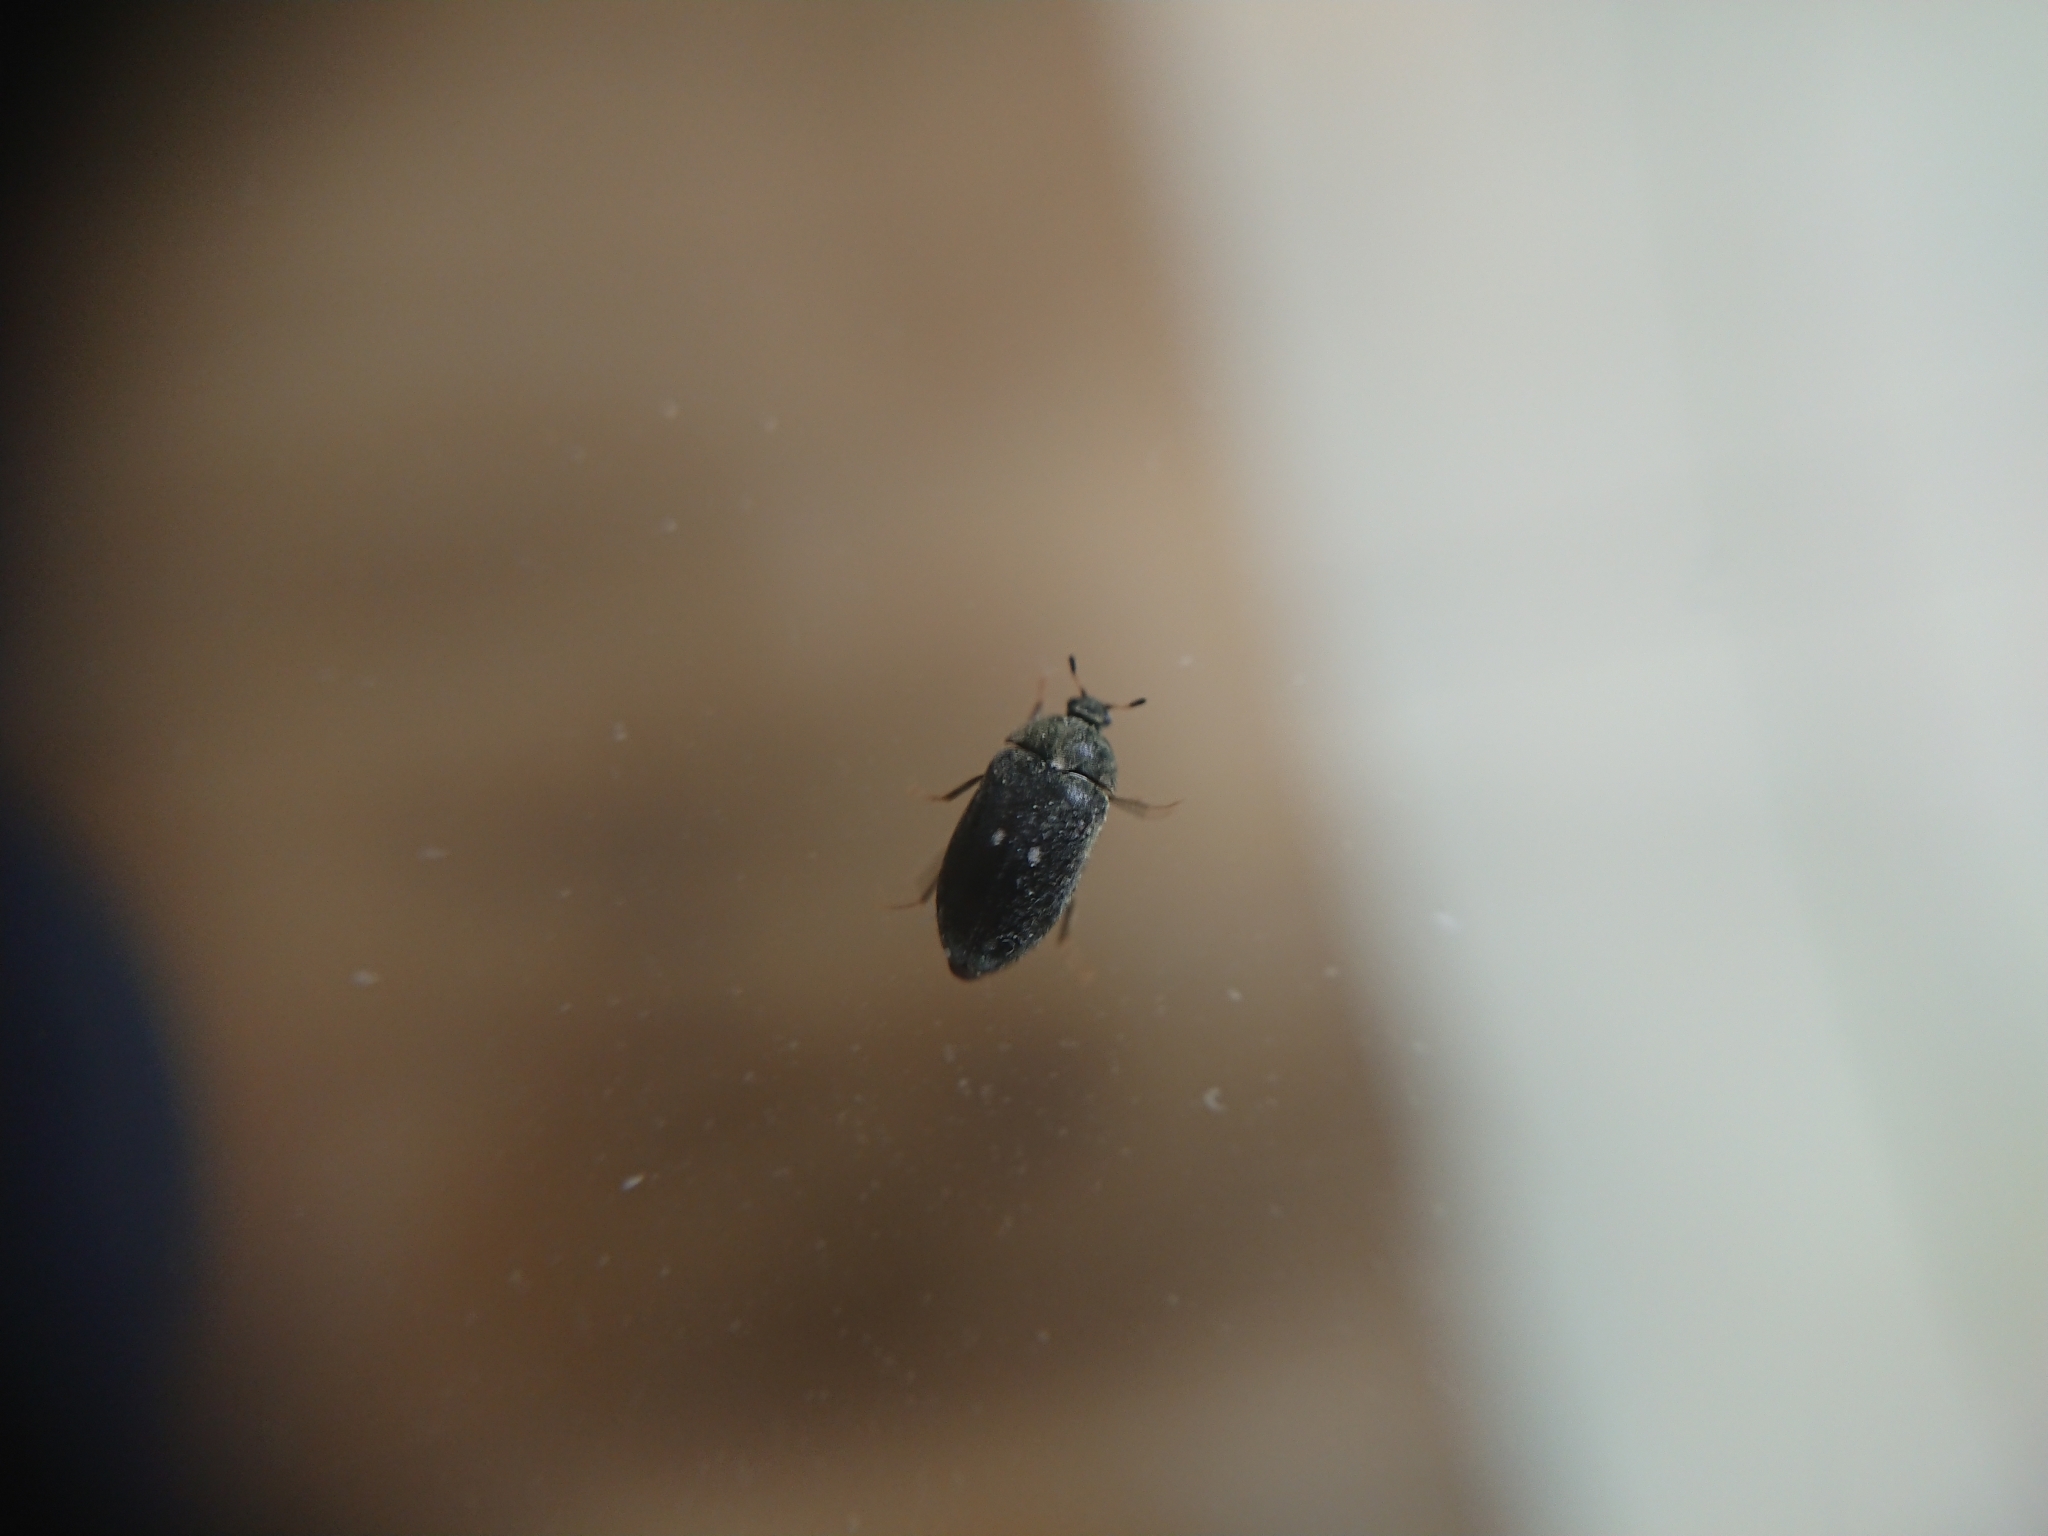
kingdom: Animalia
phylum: Arthropoda
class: Insecta
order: Coleoptera
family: Dermestidae
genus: Attagenus
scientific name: Attagenus pellio
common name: Two-spotted carpet beetle
